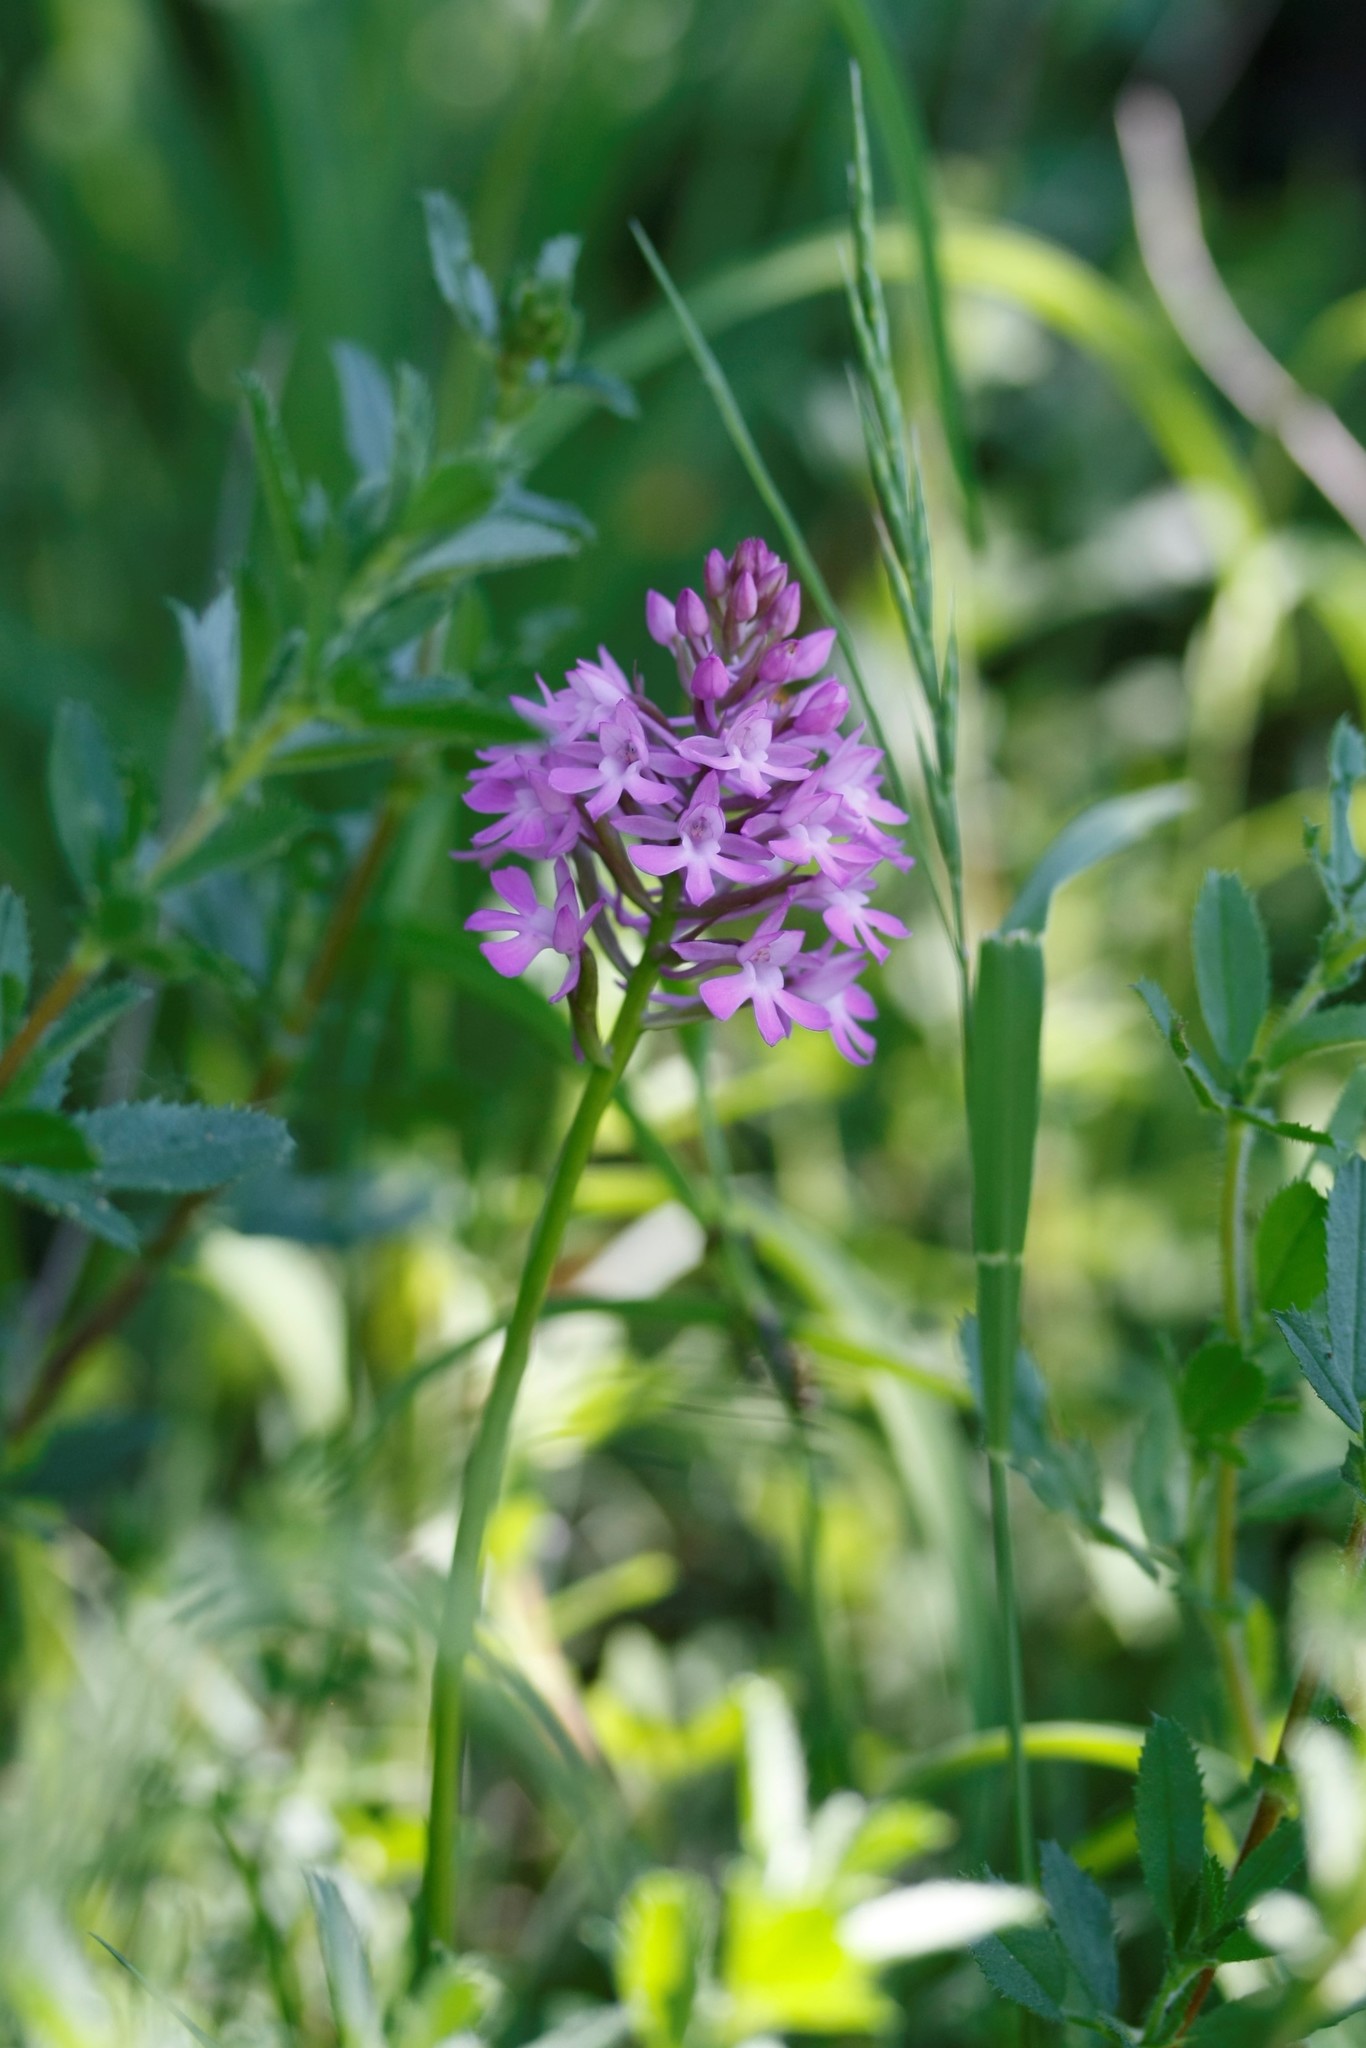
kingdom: Plantae
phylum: Tracheophyta
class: Liliopsida
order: Asparagales
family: Orchidaceae
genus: Anacamptis
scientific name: Anacamptis pyramidalis
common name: Pyramidal orchid
